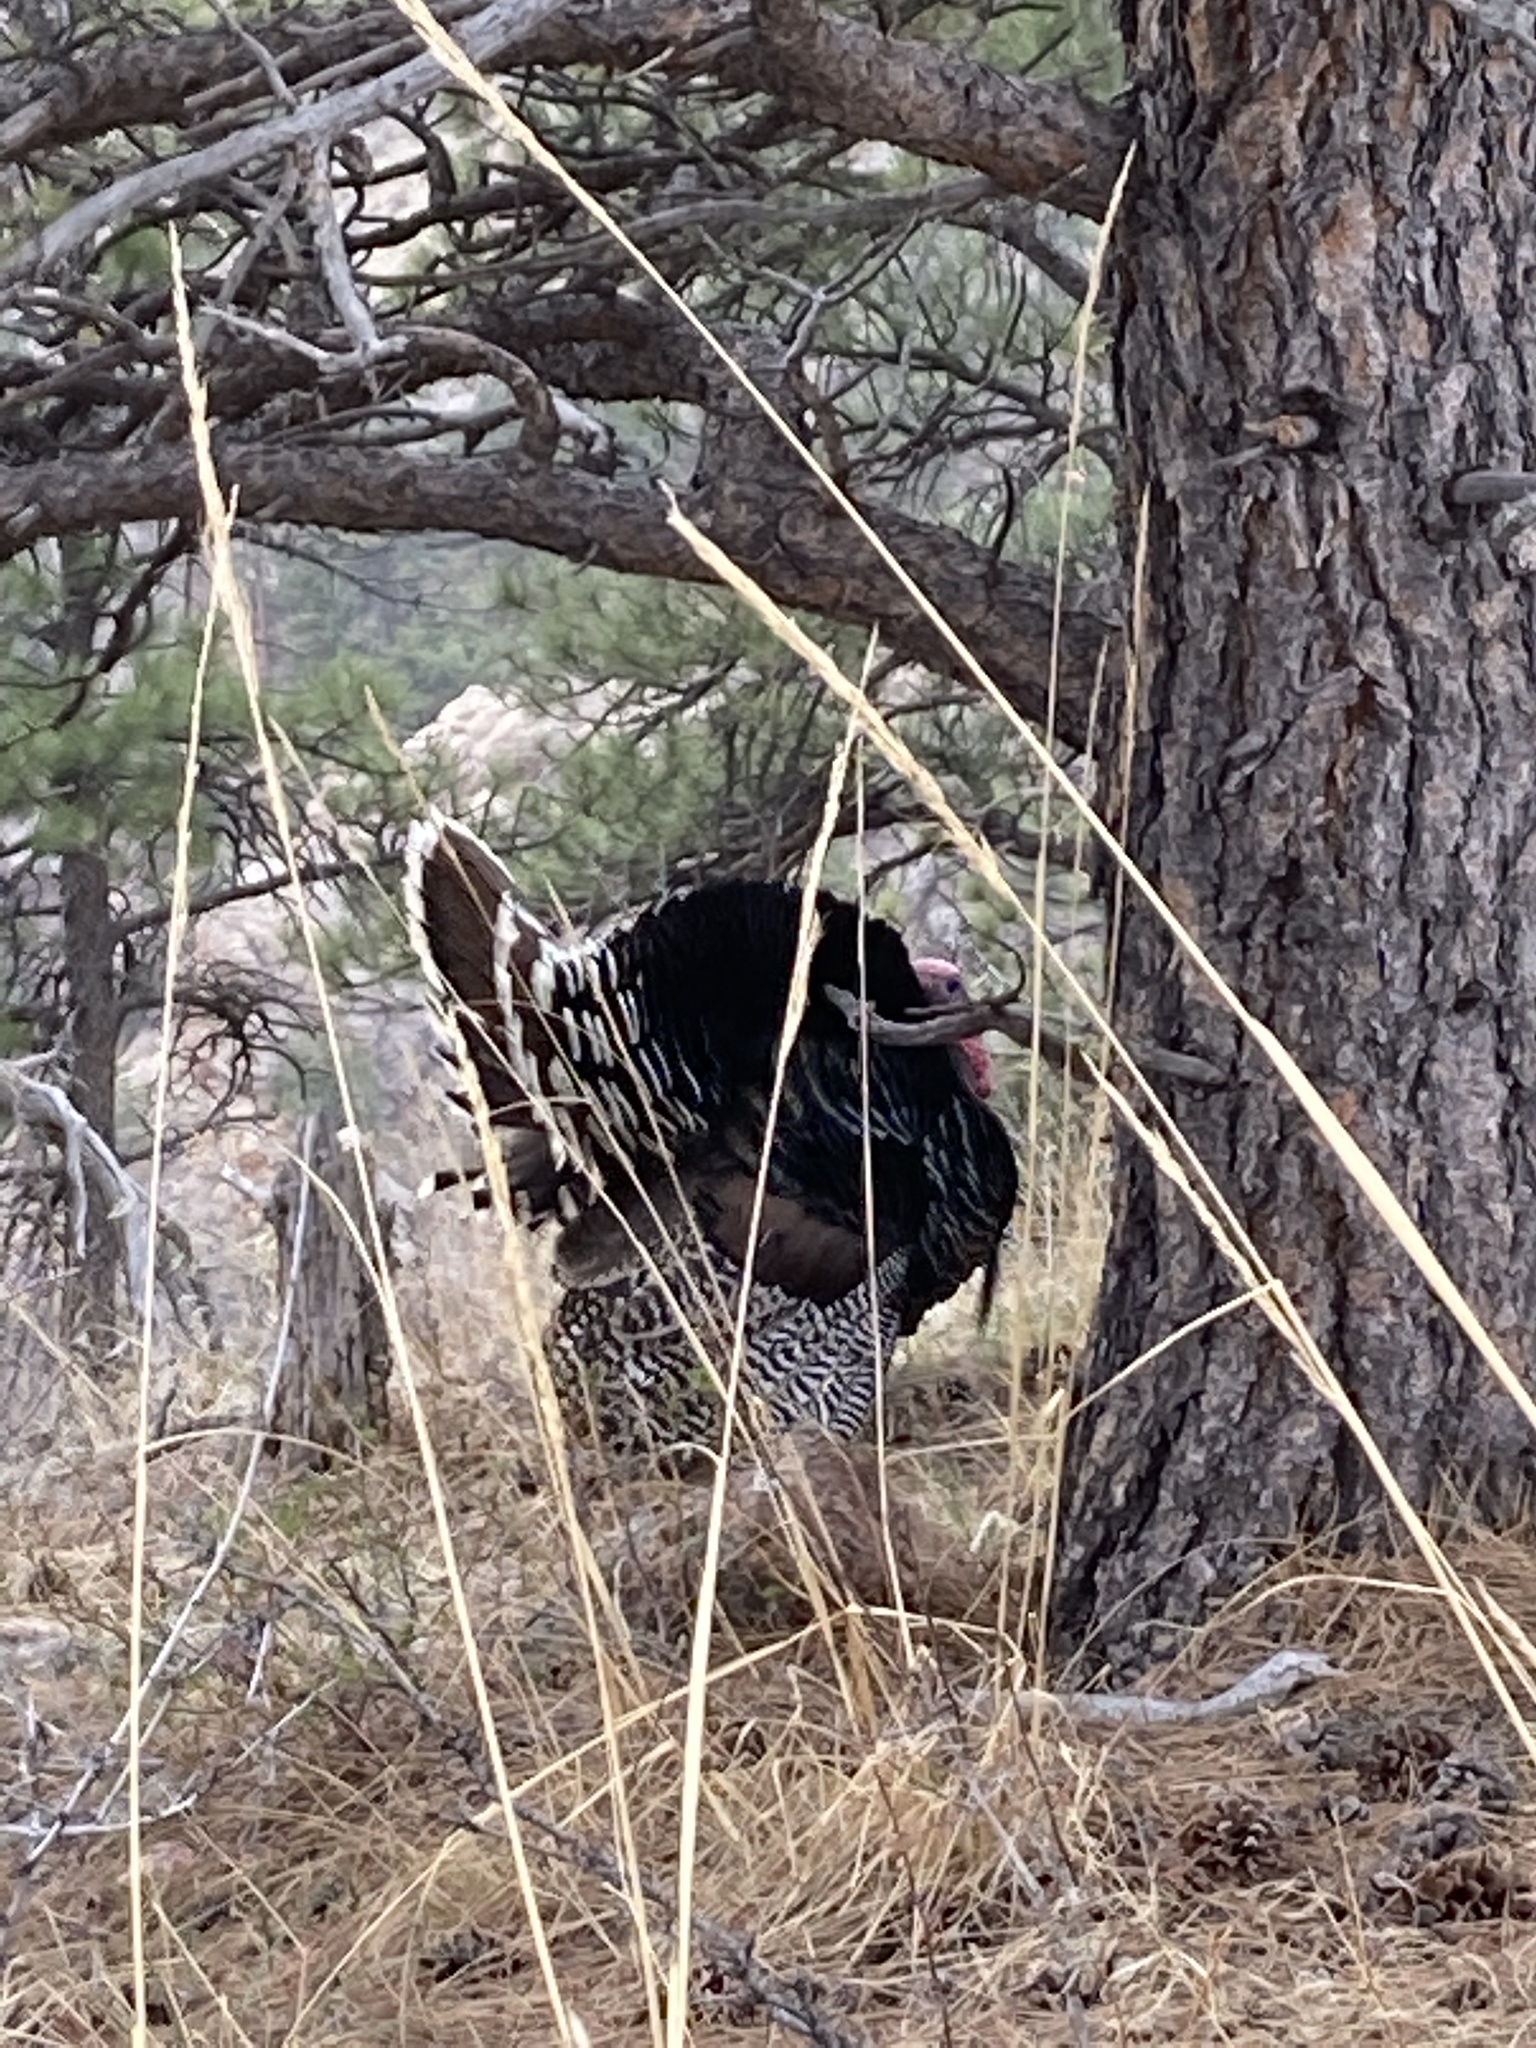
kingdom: Animalia
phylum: Chordata
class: Aves
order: Galliformes
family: Phasianidae
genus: Meleagris
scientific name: Meleagris gallopavo
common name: Wild turkey
